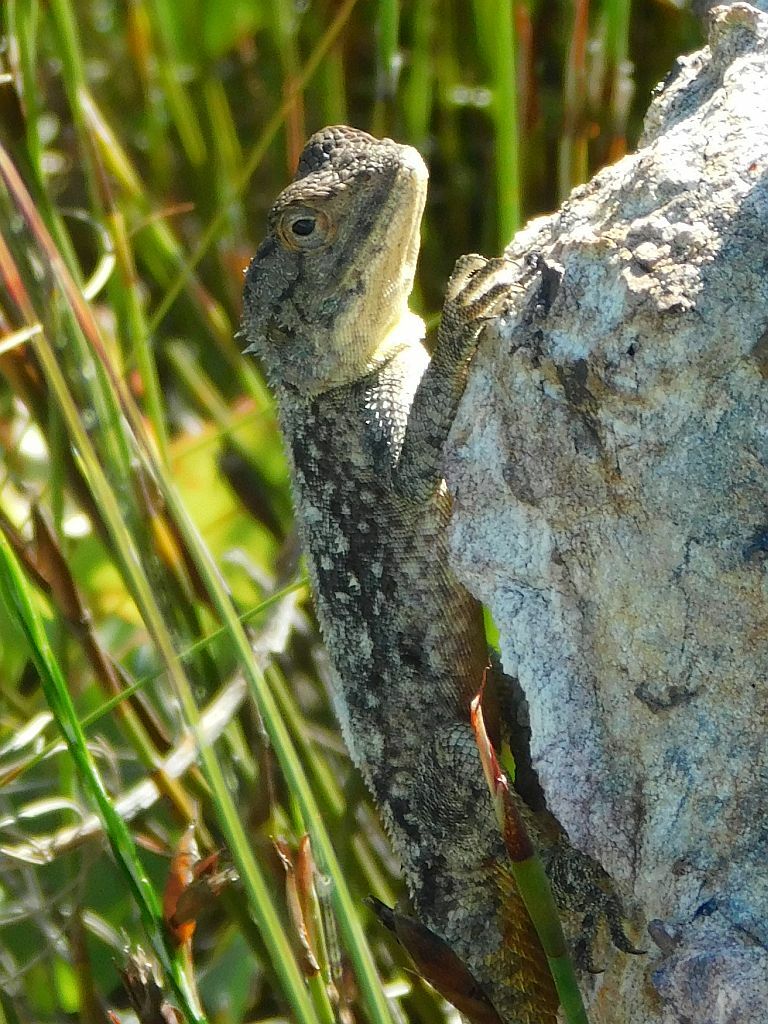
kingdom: Animalia
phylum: Chordata
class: Squamata
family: Agamidae
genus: Agama
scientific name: Agama atra
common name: Southern african rock agama
